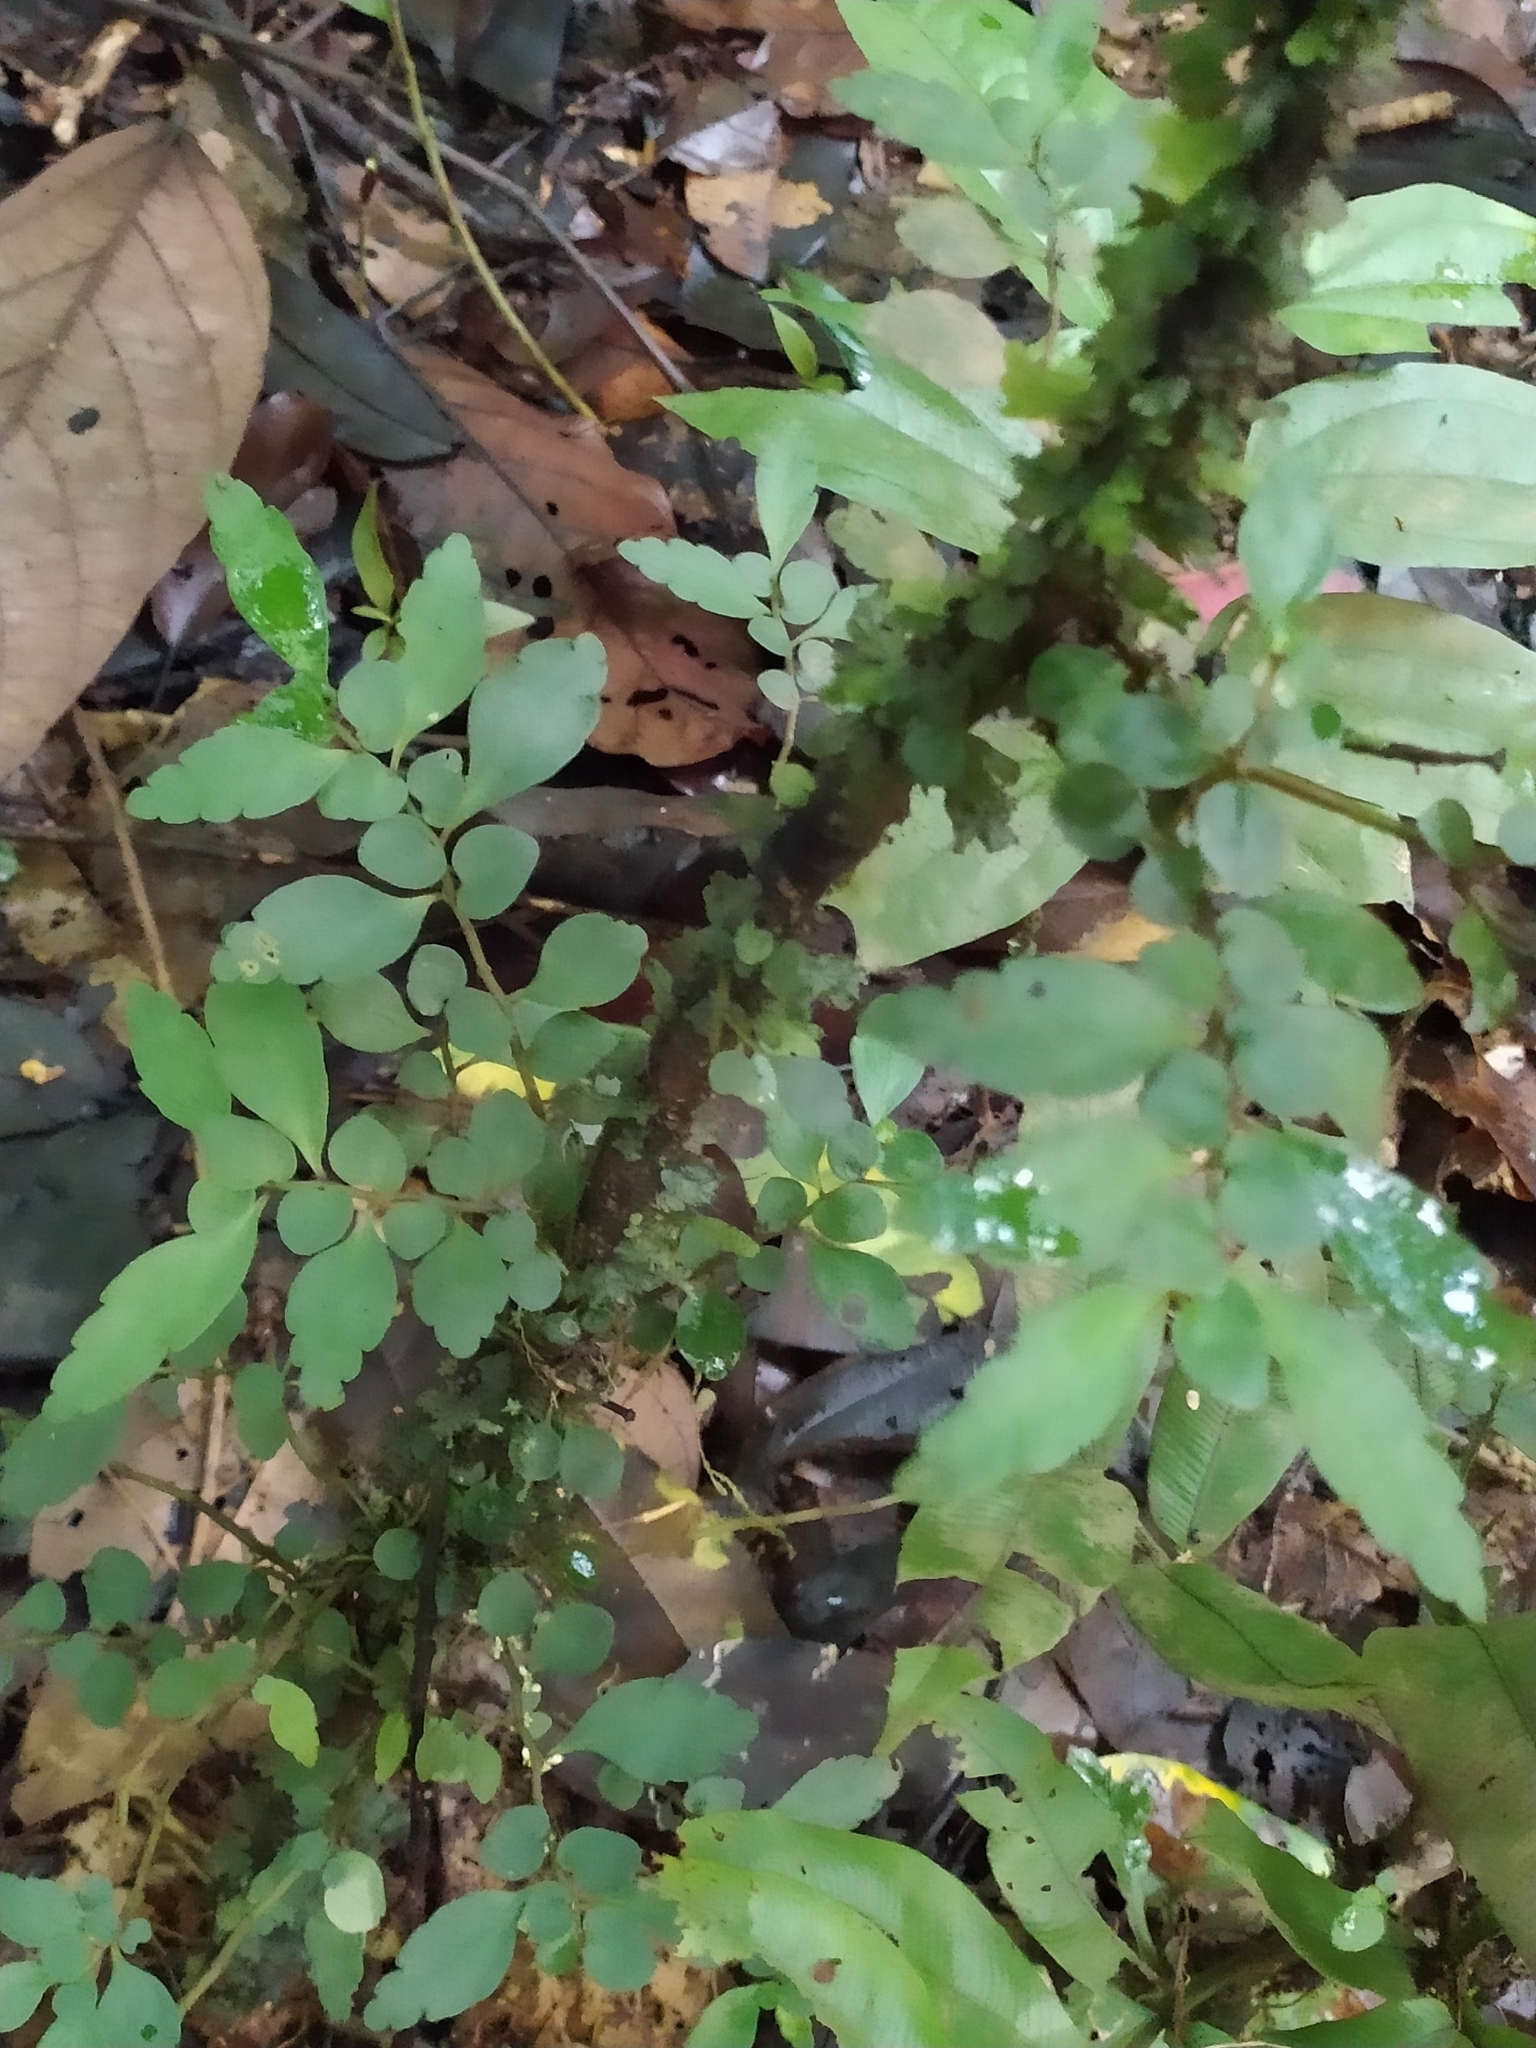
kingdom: Plantae
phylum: Tracheophyta
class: Magnoliopsida
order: Rosales
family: Urticaceae
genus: Pilea
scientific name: Pilea imparifolia
